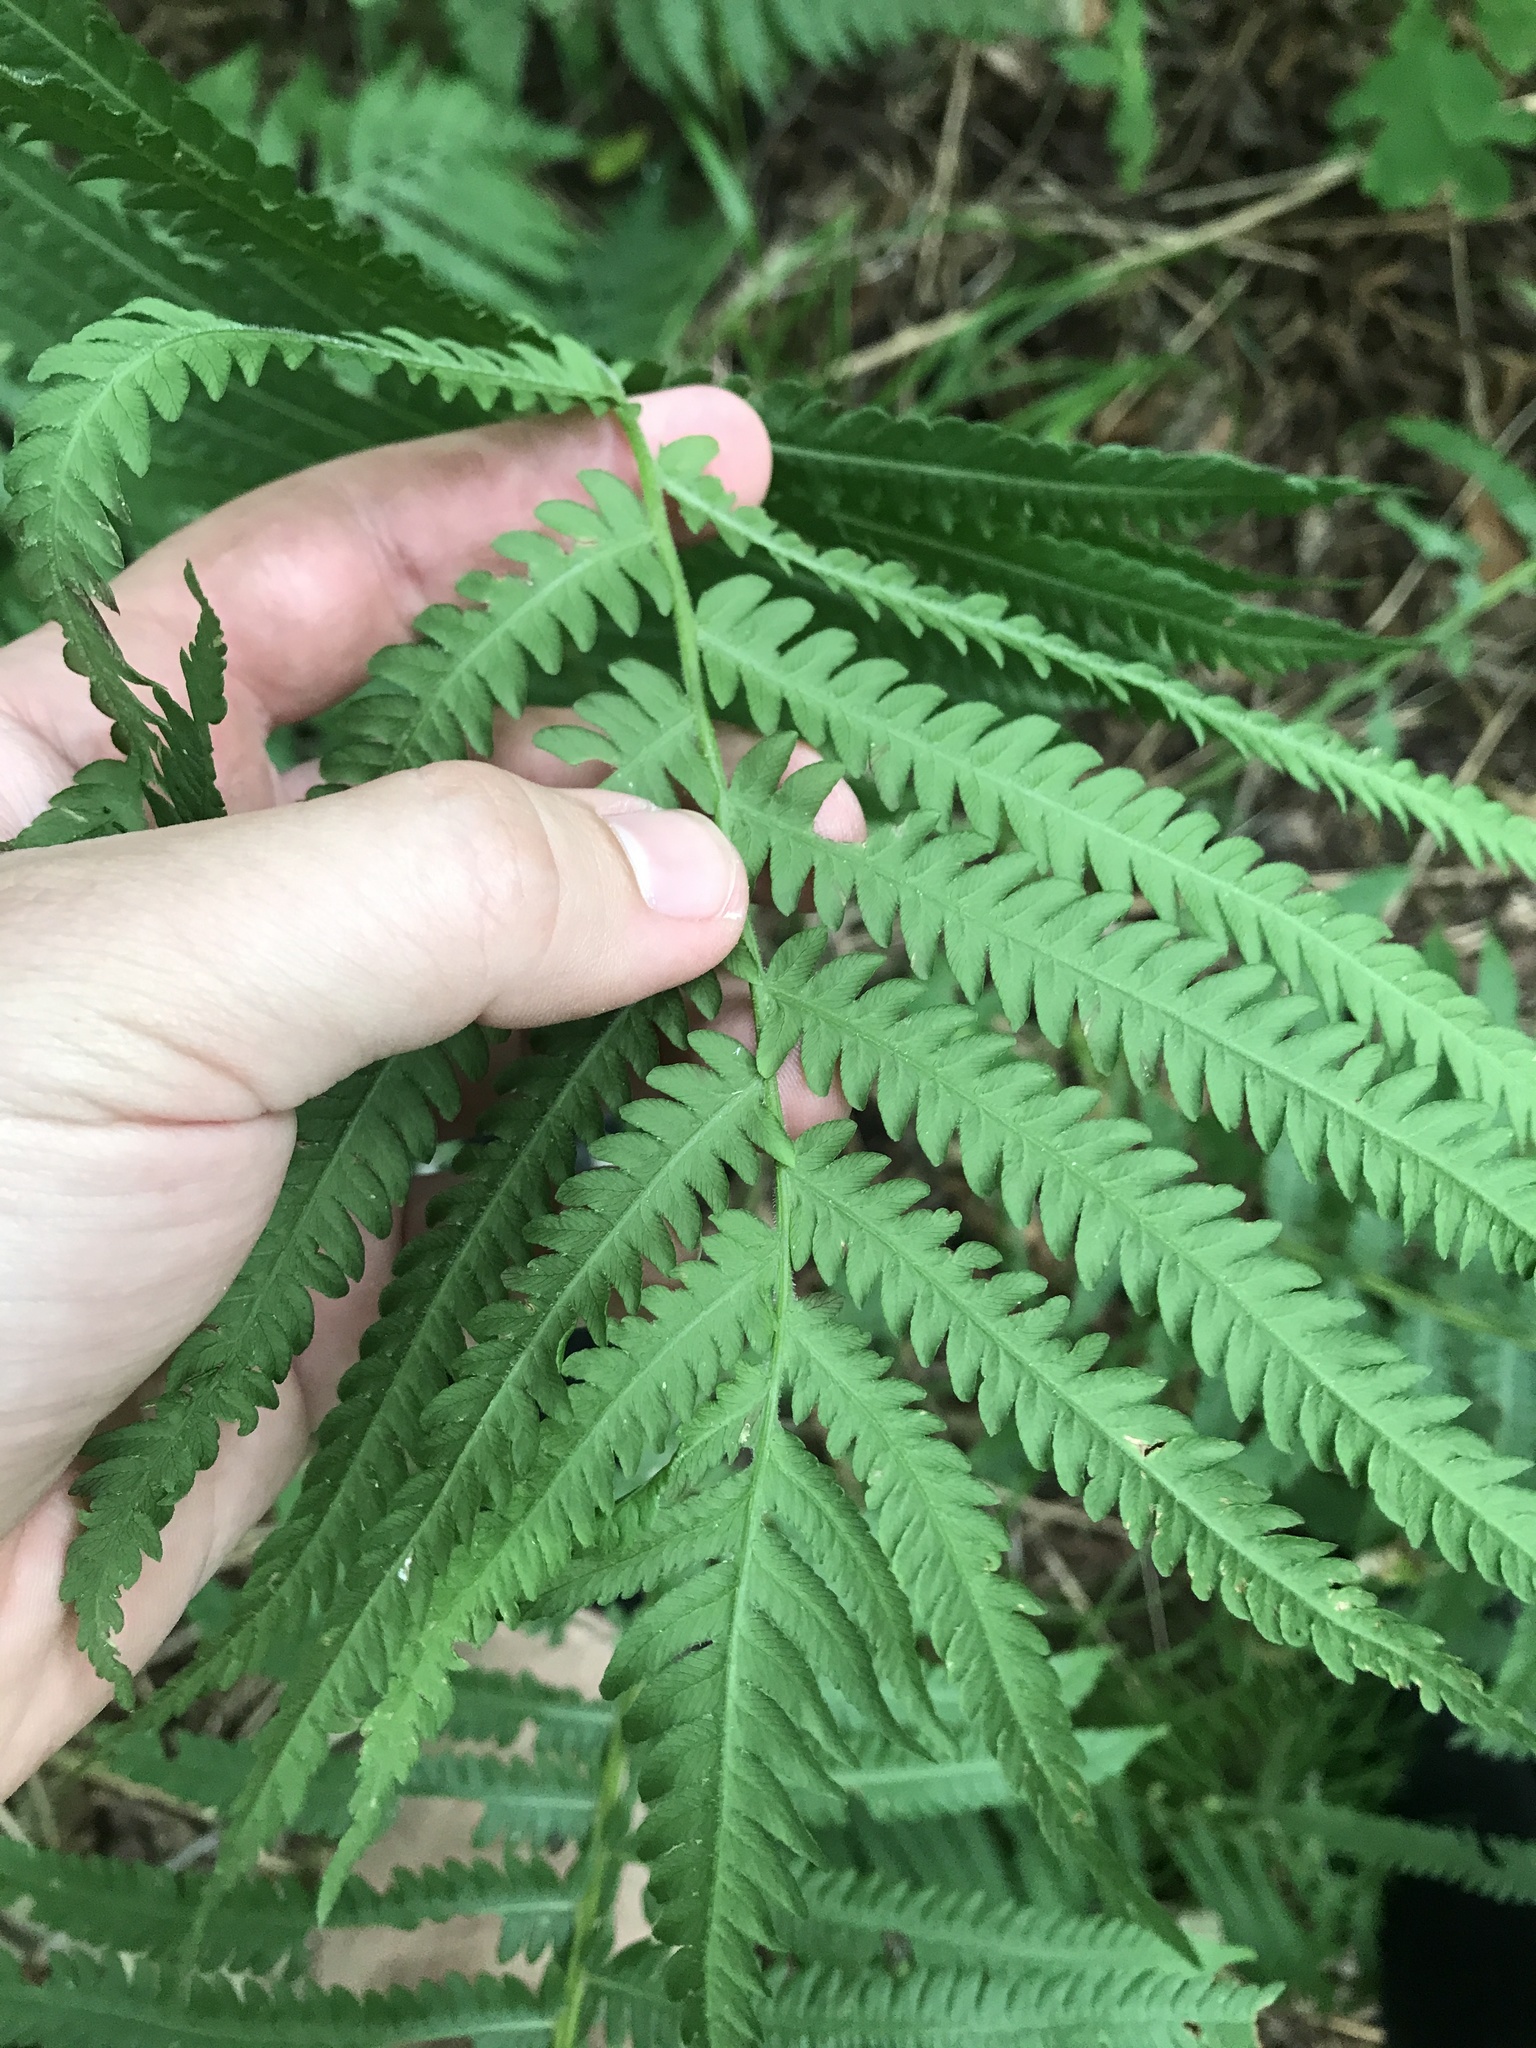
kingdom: Plantae
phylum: Tracheophyta
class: Polypodiopsida
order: Polypodiales
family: Onocleaceae
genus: Matteuccia
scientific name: Matteuccia struthiopteris
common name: Ostrich fern
